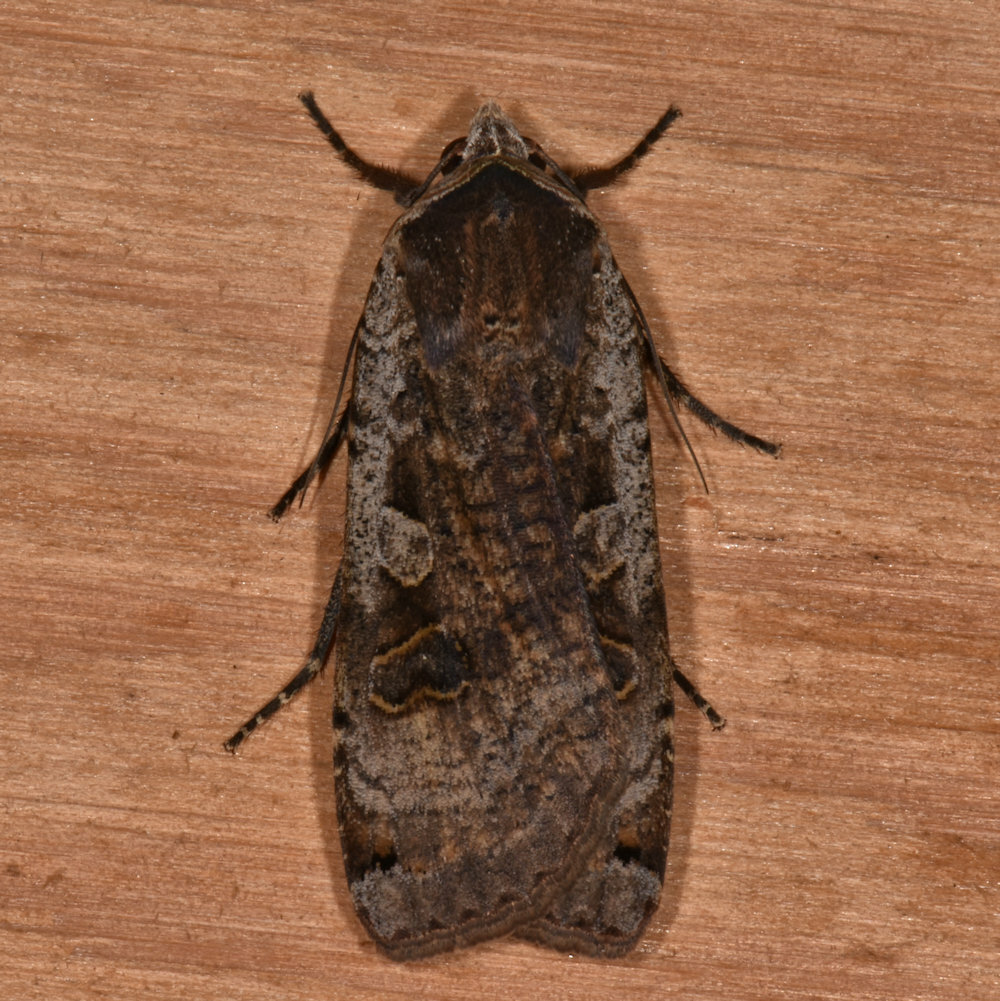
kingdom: Animalia
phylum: Arthropoda
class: Insecta
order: Lepidoptera
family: Noctuidae
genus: Noctua
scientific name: Noctua pronuba
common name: Large yellow underwing
